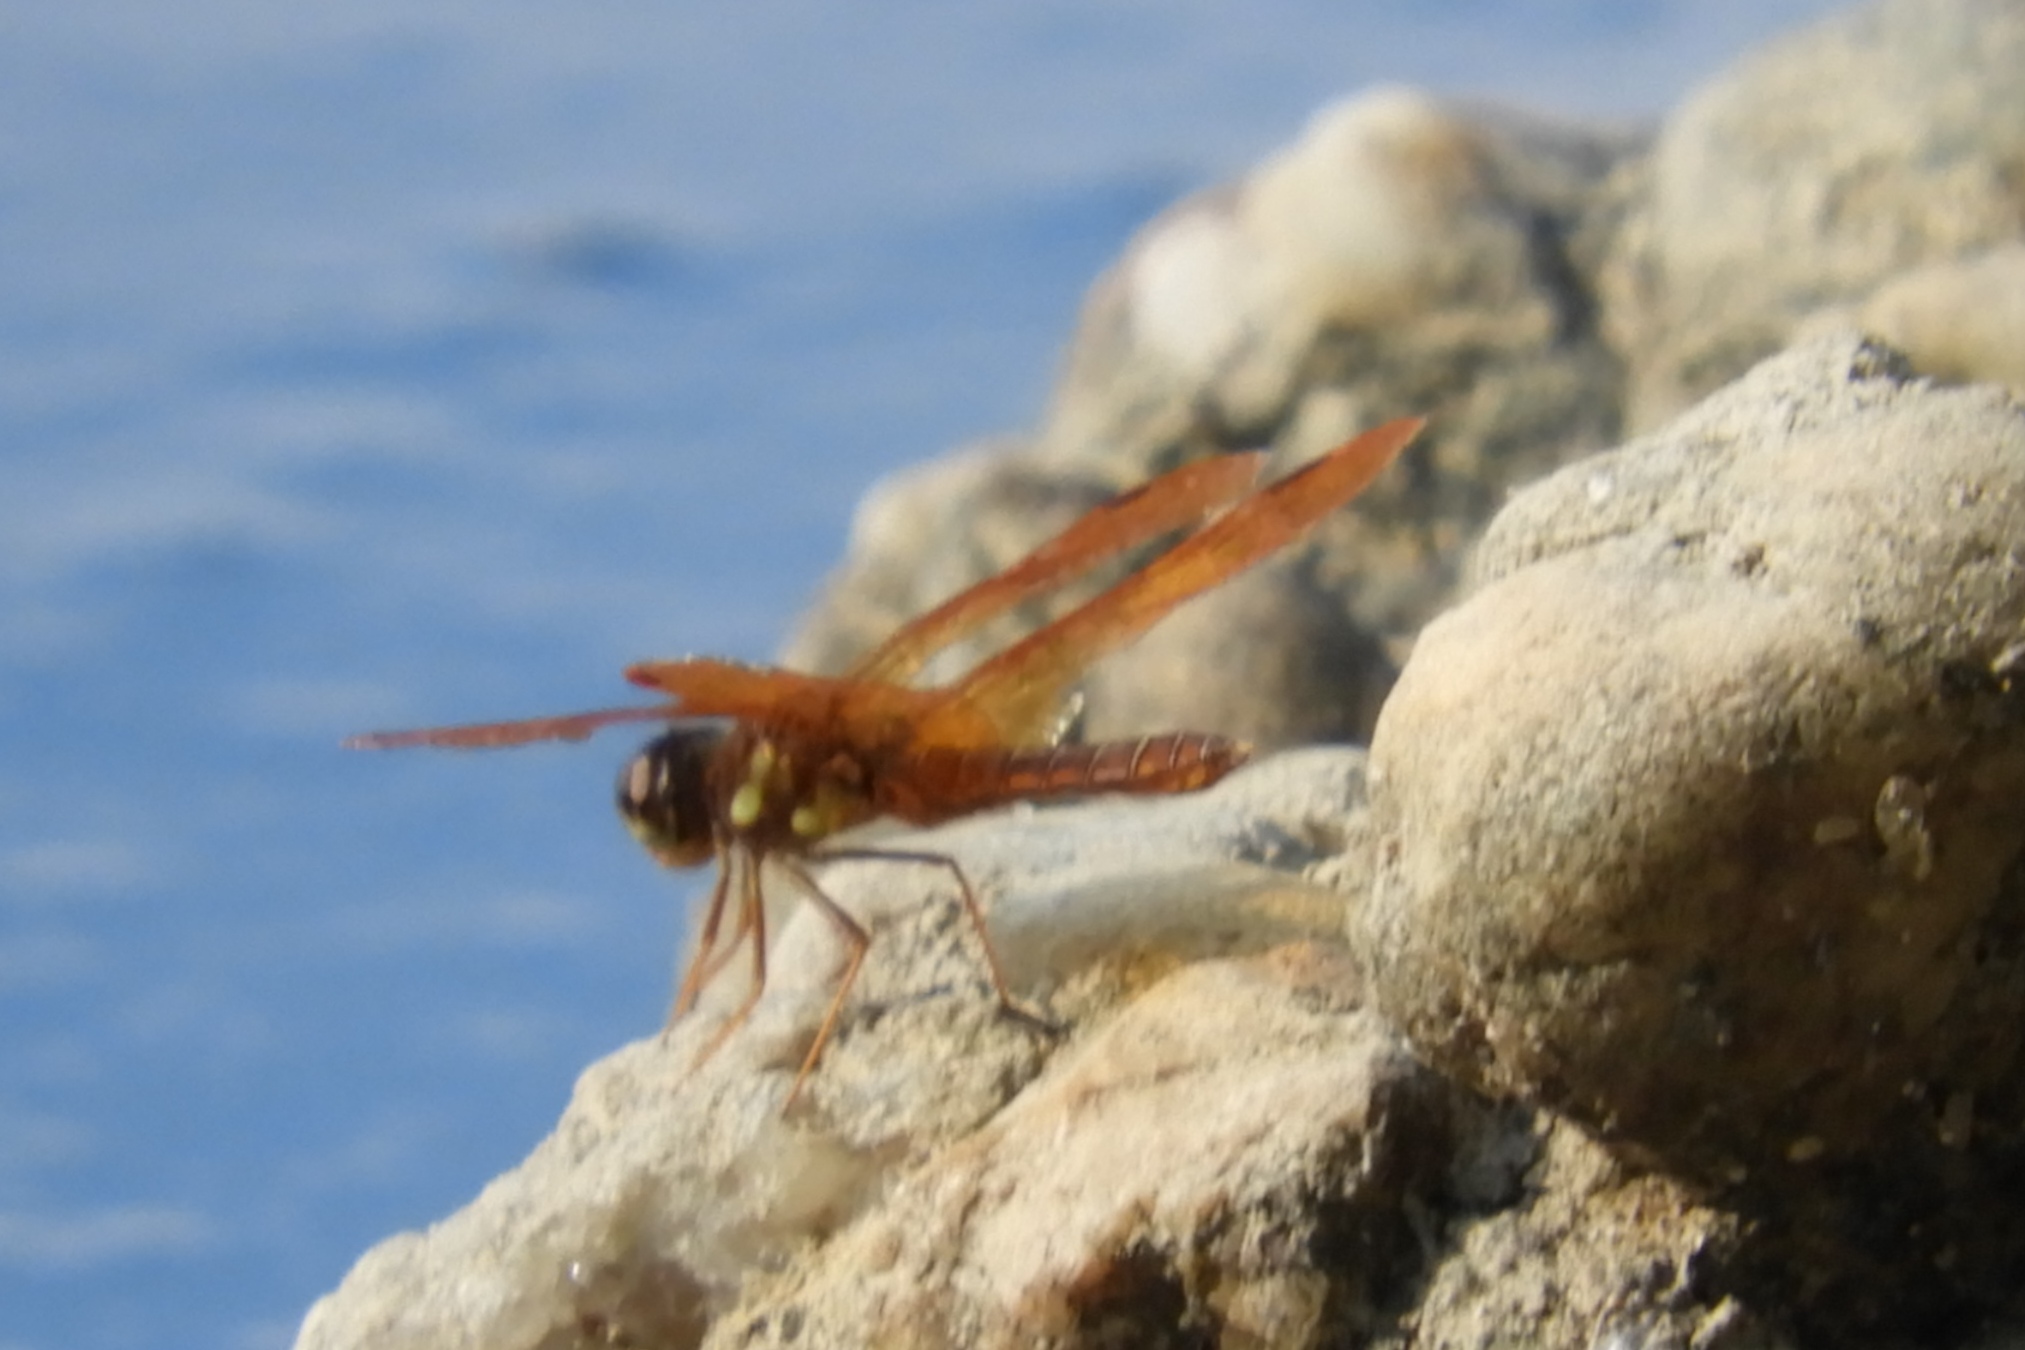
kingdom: Animalia
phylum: Arthropoda
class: Insecta
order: Odonata
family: Libellulidae
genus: Perithemis
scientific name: Perithemis tenera
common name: Eastern amberwing
